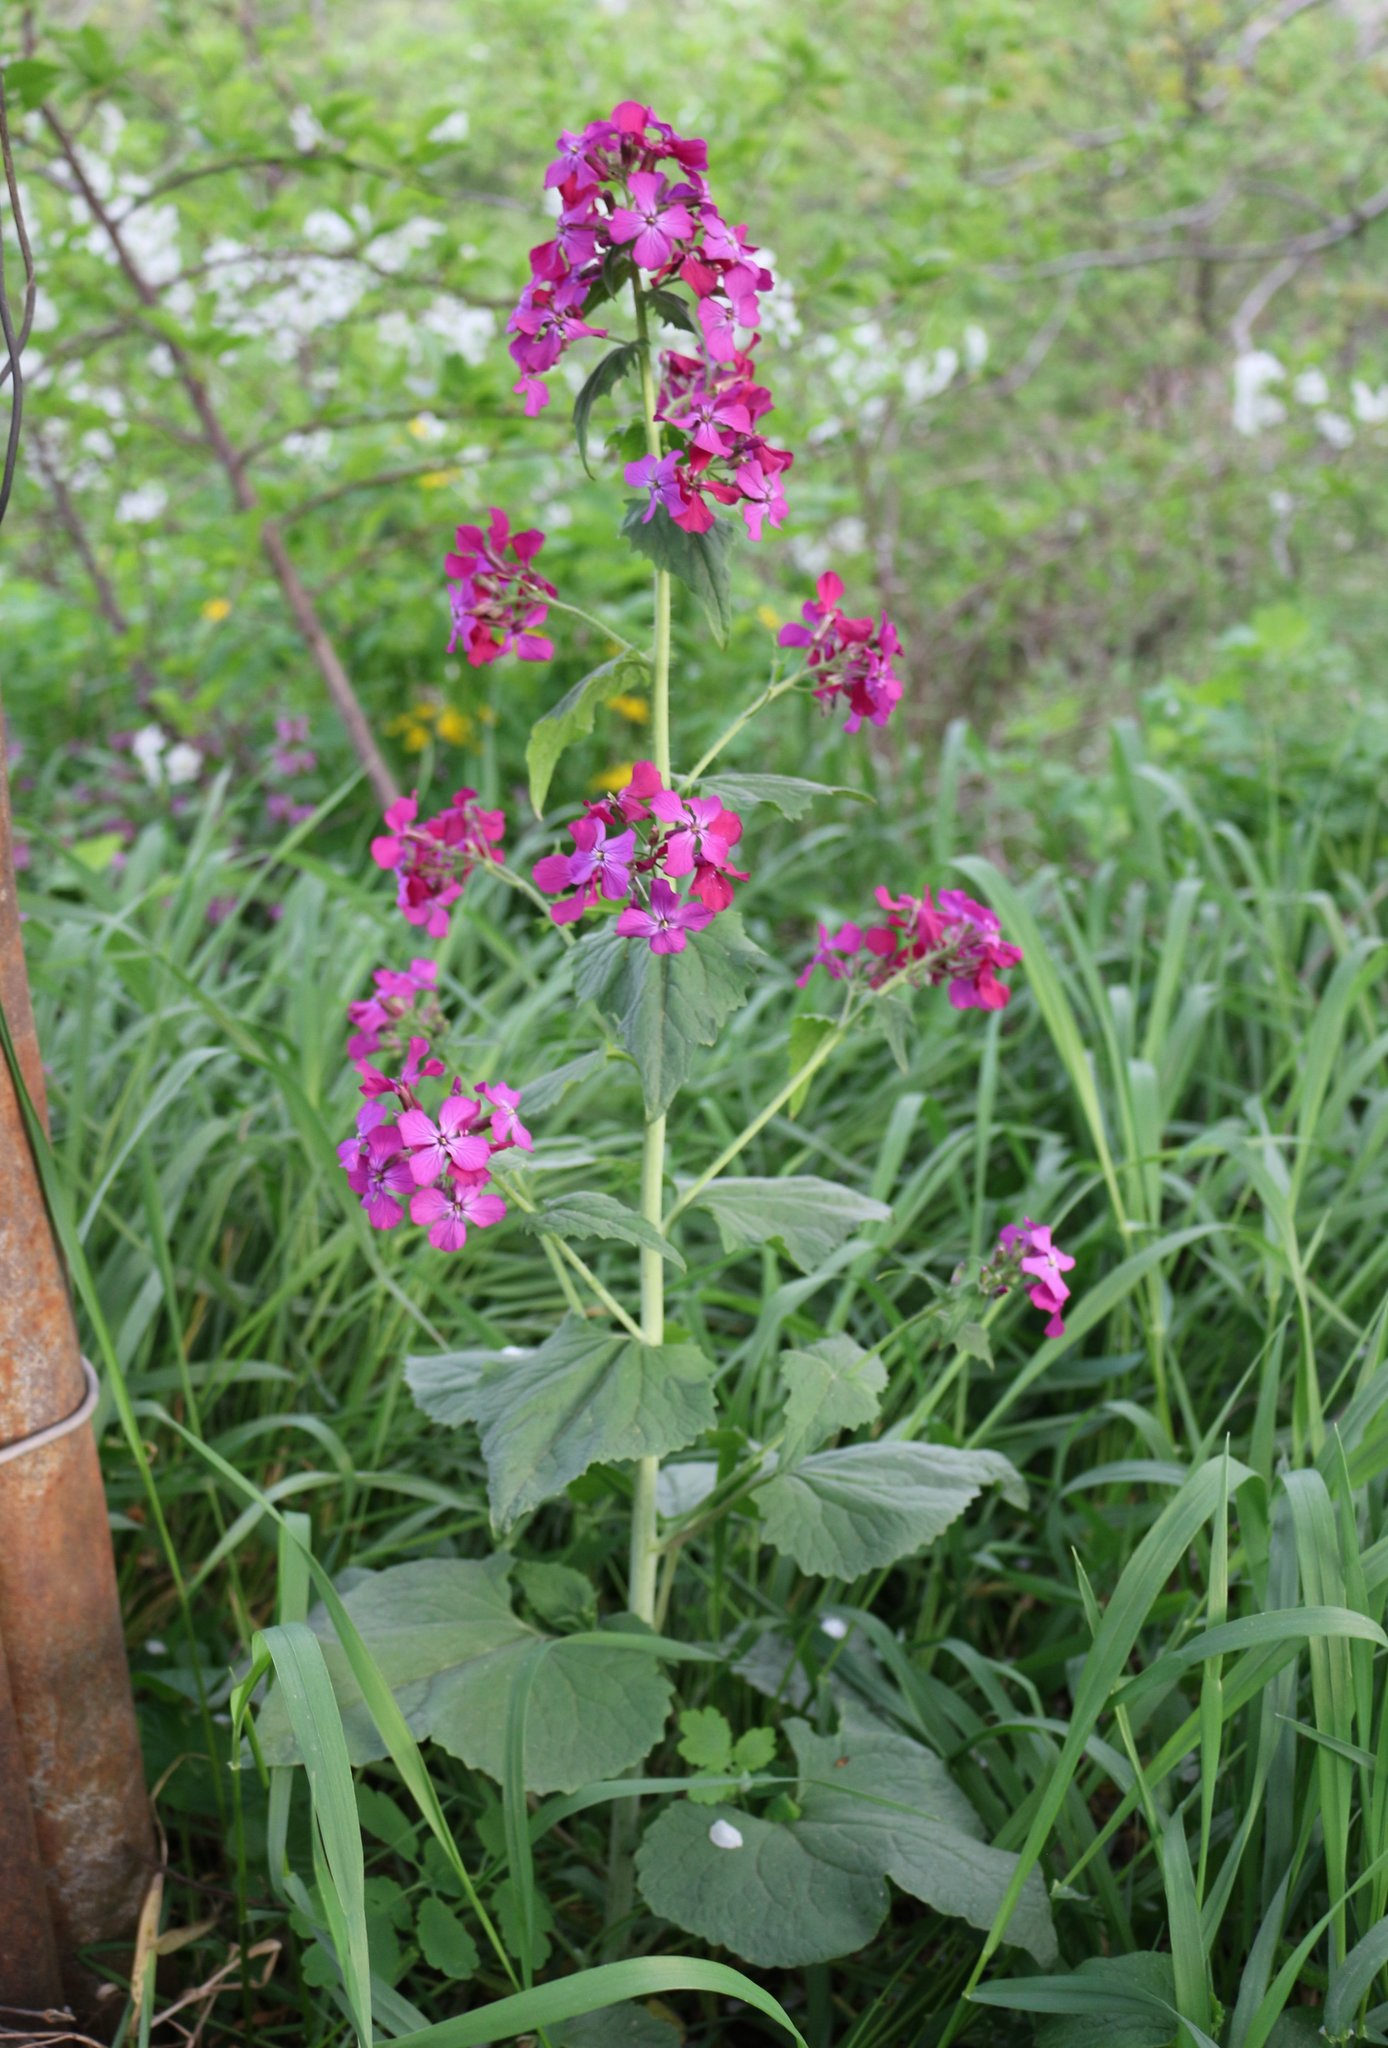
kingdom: Plantae
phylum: Tracheophyta
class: Magnoliopsida
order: Brassicales
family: Brassicaceae
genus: Lunaria
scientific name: Lunaria annua
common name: Honesty
